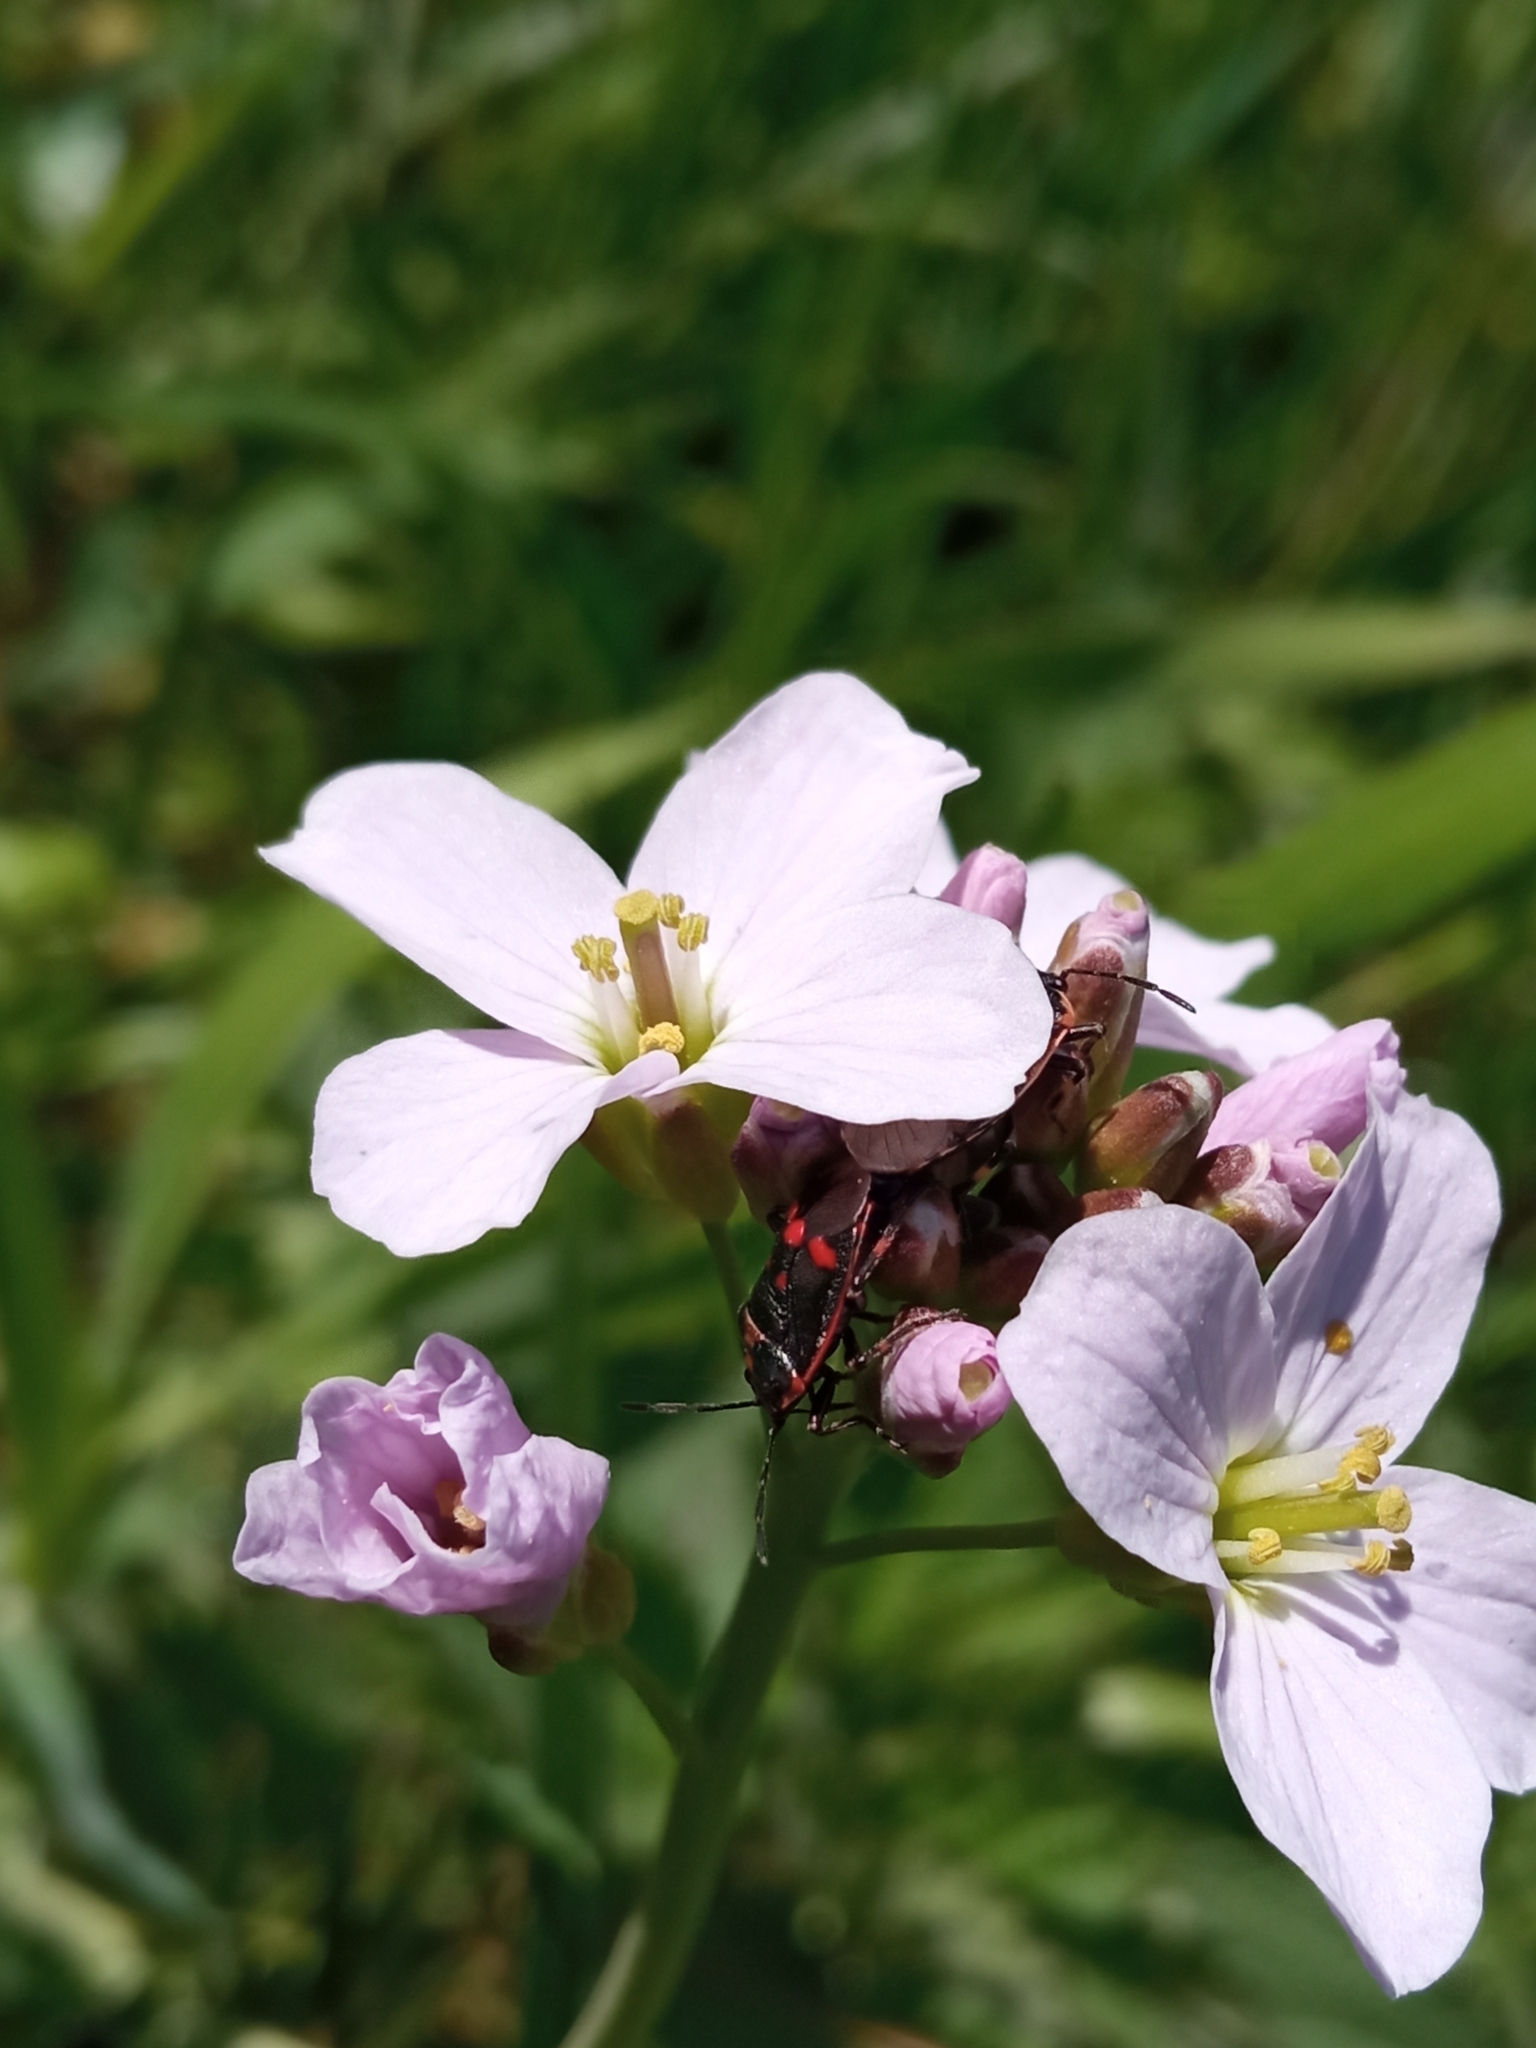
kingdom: Animalia
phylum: Arthropoda
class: Insecta
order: Hemiptera
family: Pentatomidae
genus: Eurydema
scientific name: Eurydema oleracea
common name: Cabbage bug
